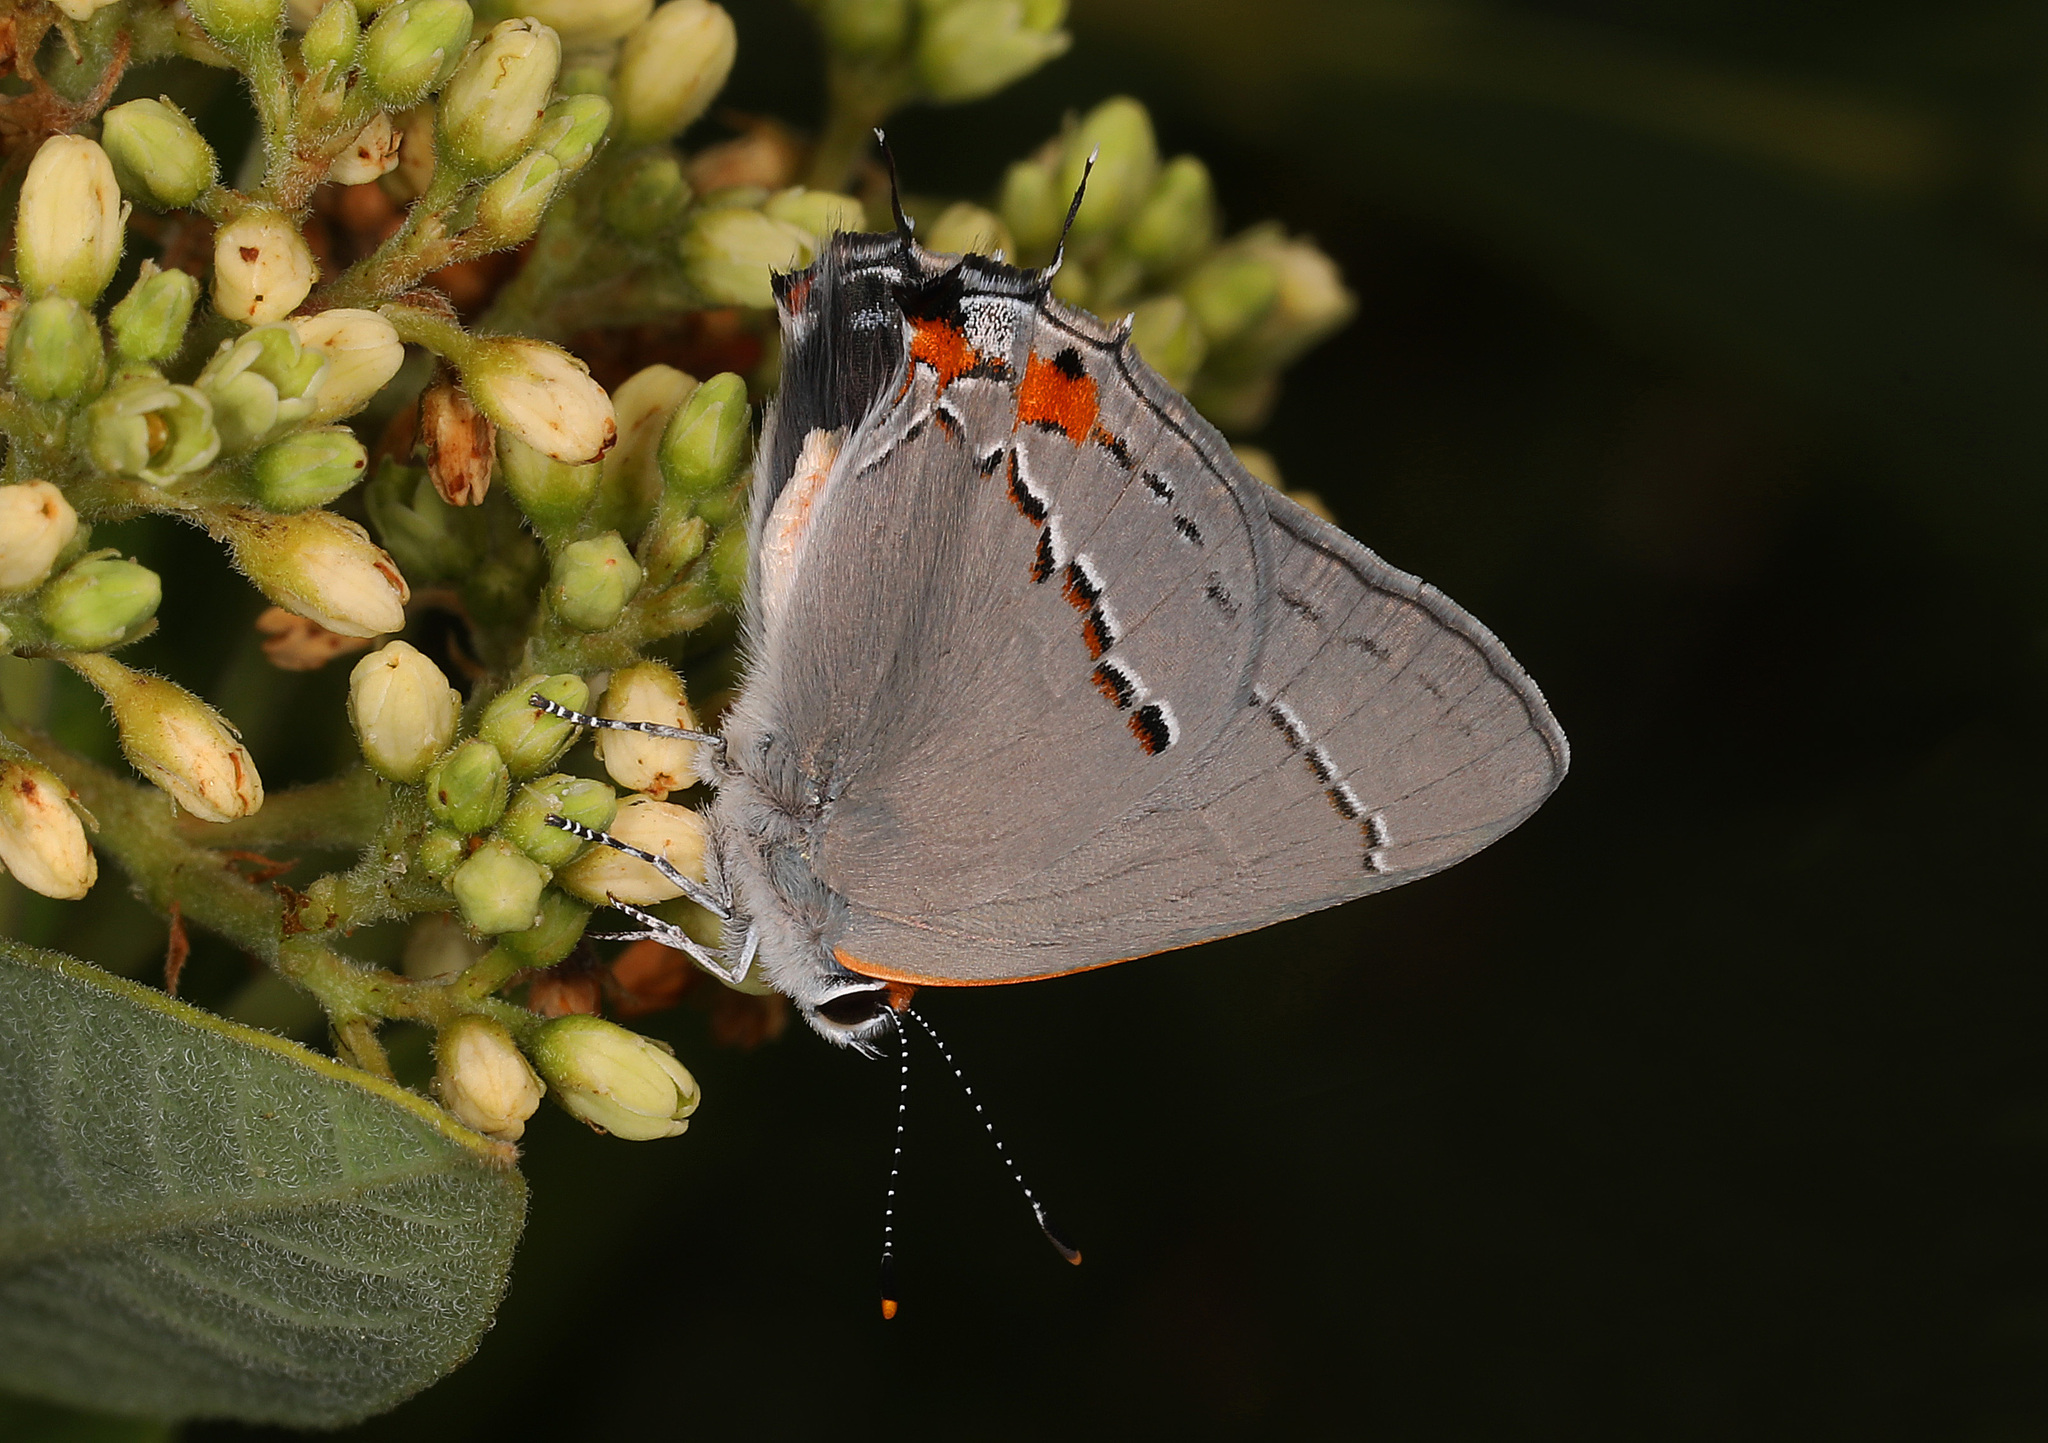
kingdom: Animalia
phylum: Arthropoda
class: Insecta
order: Lepidoptera
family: Lycaenidae
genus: Strymon
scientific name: Strymon melinus
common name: Gray hairstreak
